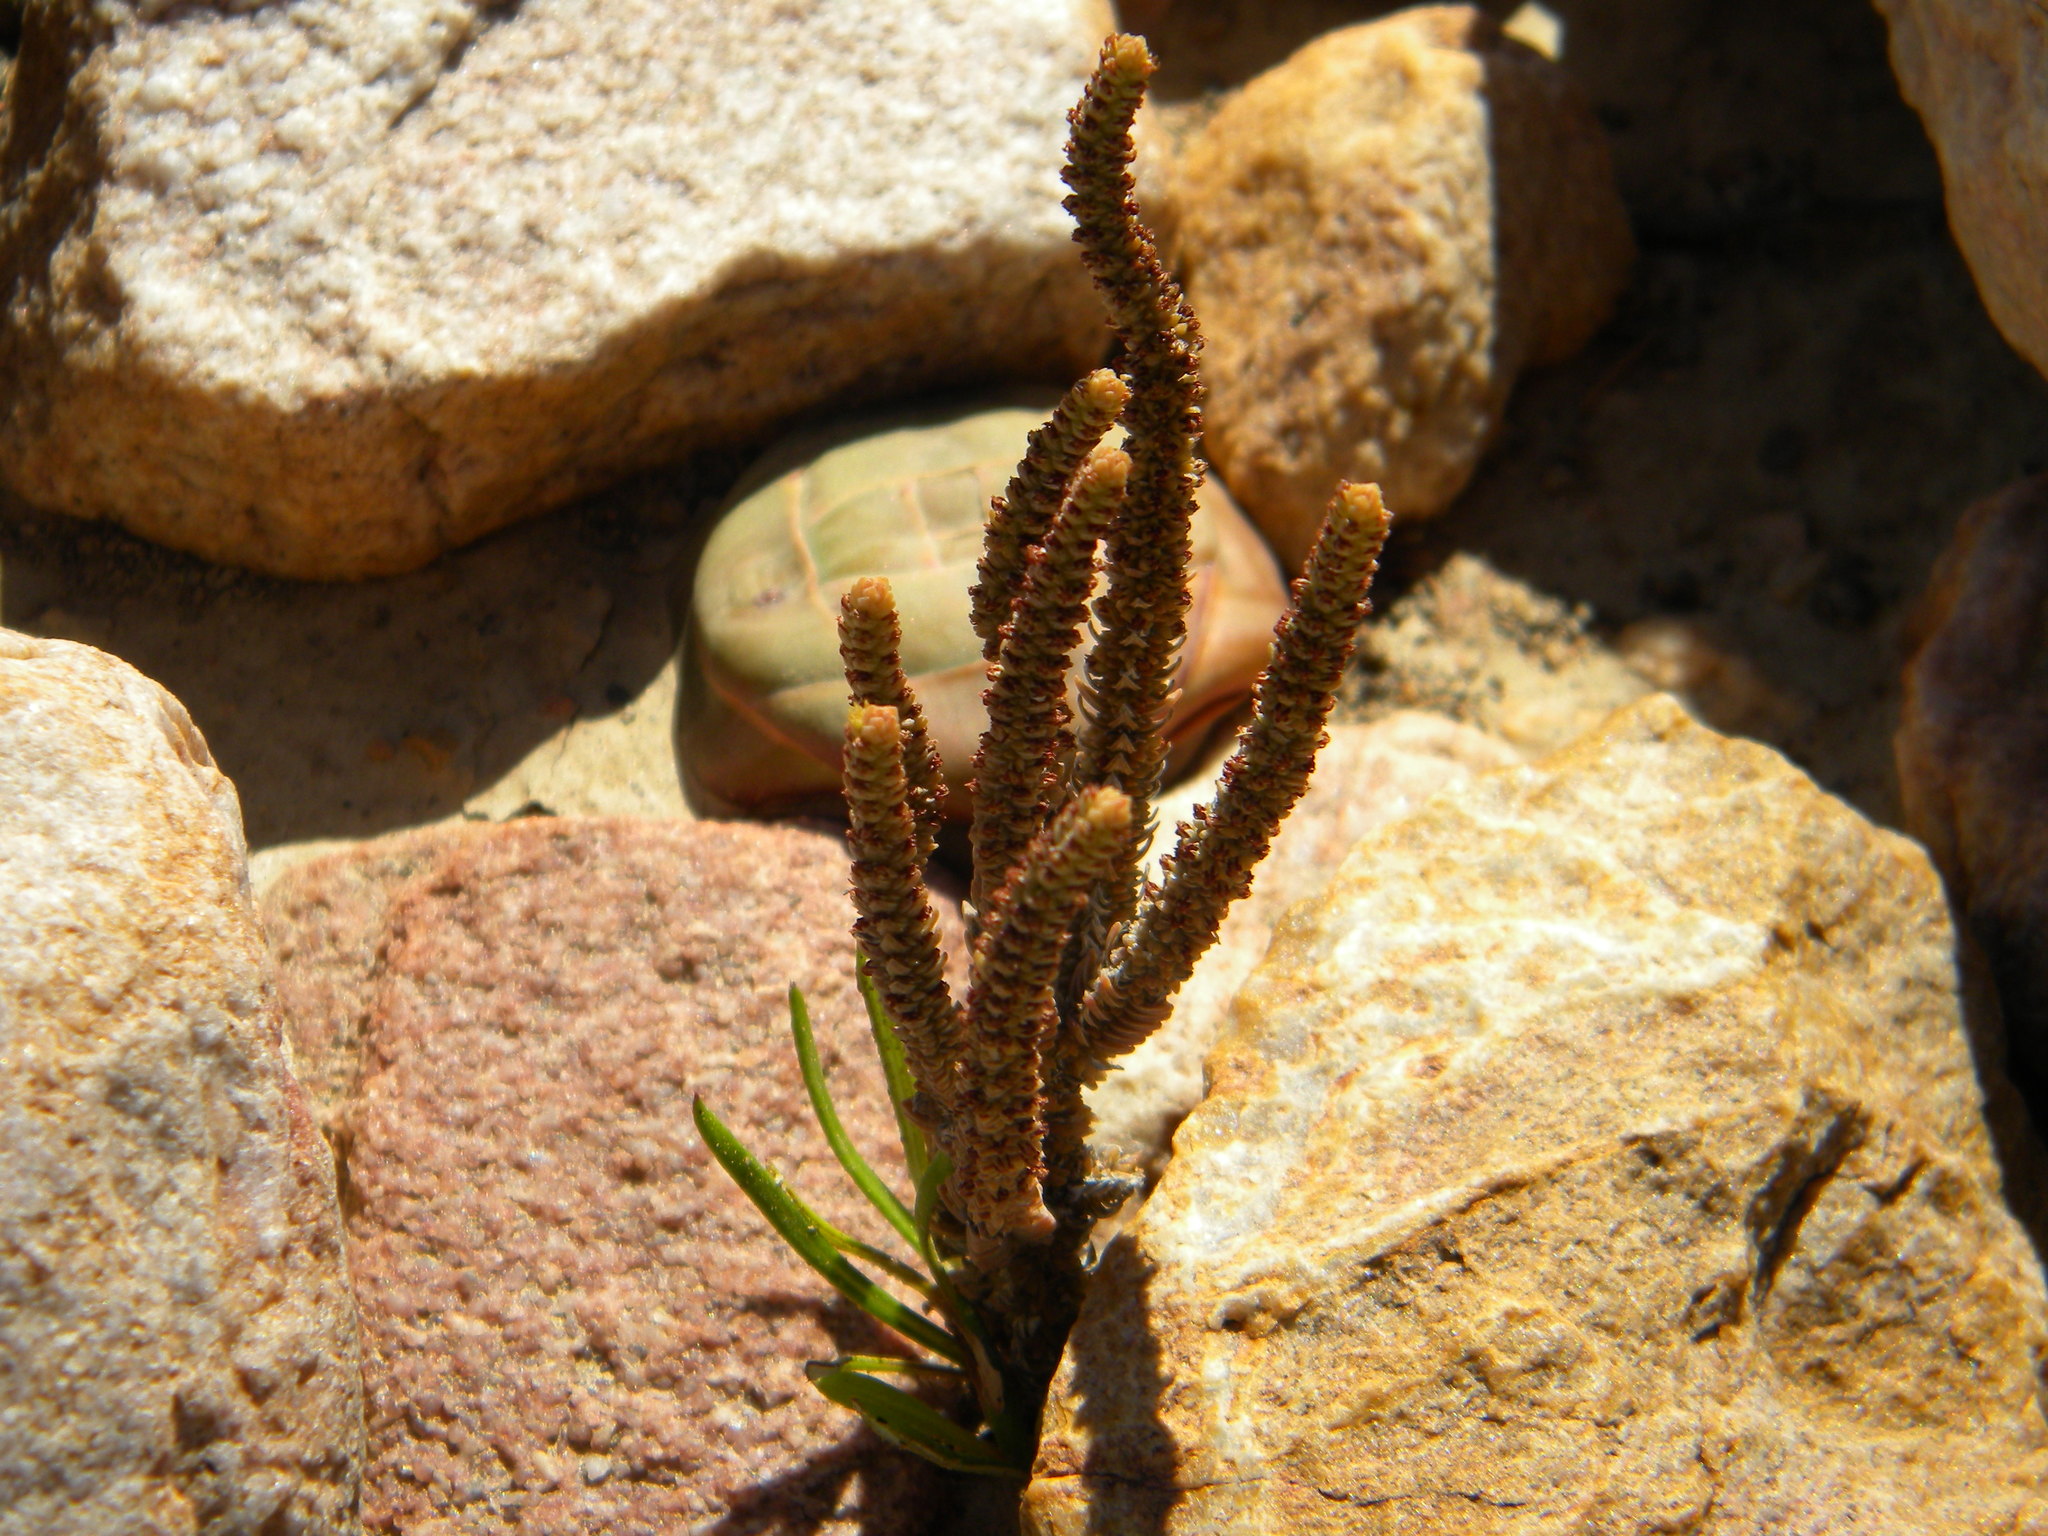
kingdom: Plantae
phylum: Tracheophyta
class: Magnoliopsida
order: Saxifragales
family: Crassulaceae
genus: Crassula
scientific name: Crassula muscosa
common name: Toy-cypress
